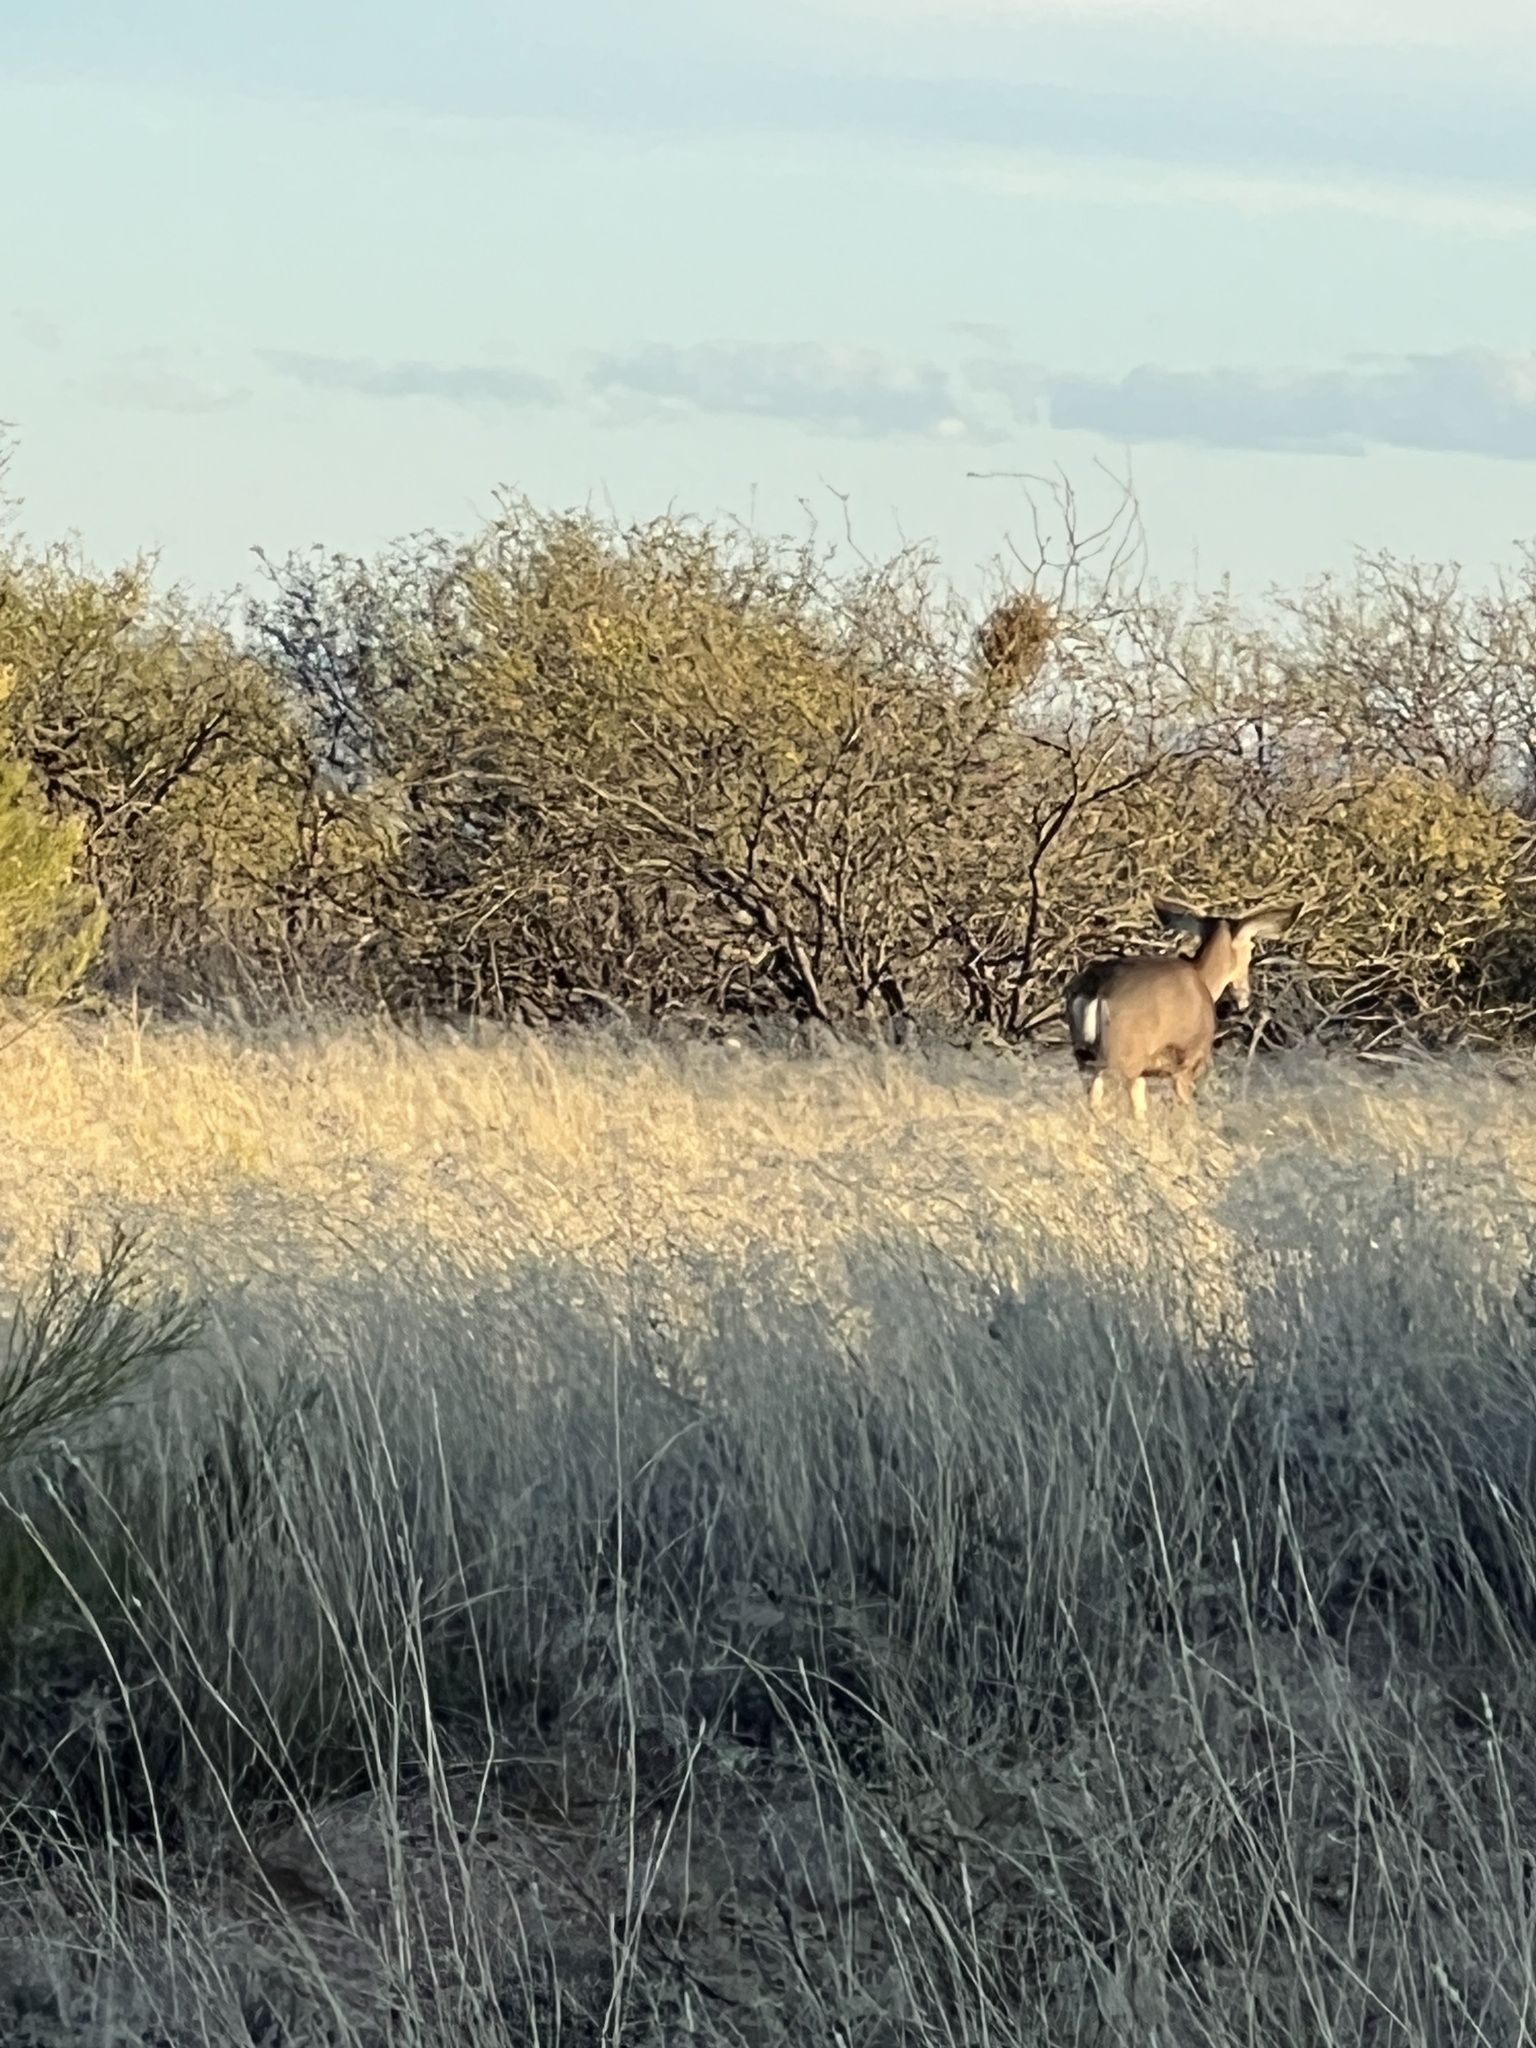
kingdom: Animalia
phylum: Chordata
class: Mammalia
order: Artiodactyla
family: Cervidae
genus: Odocoileus
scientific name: Odocoileus hemionus
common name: Mule deer
